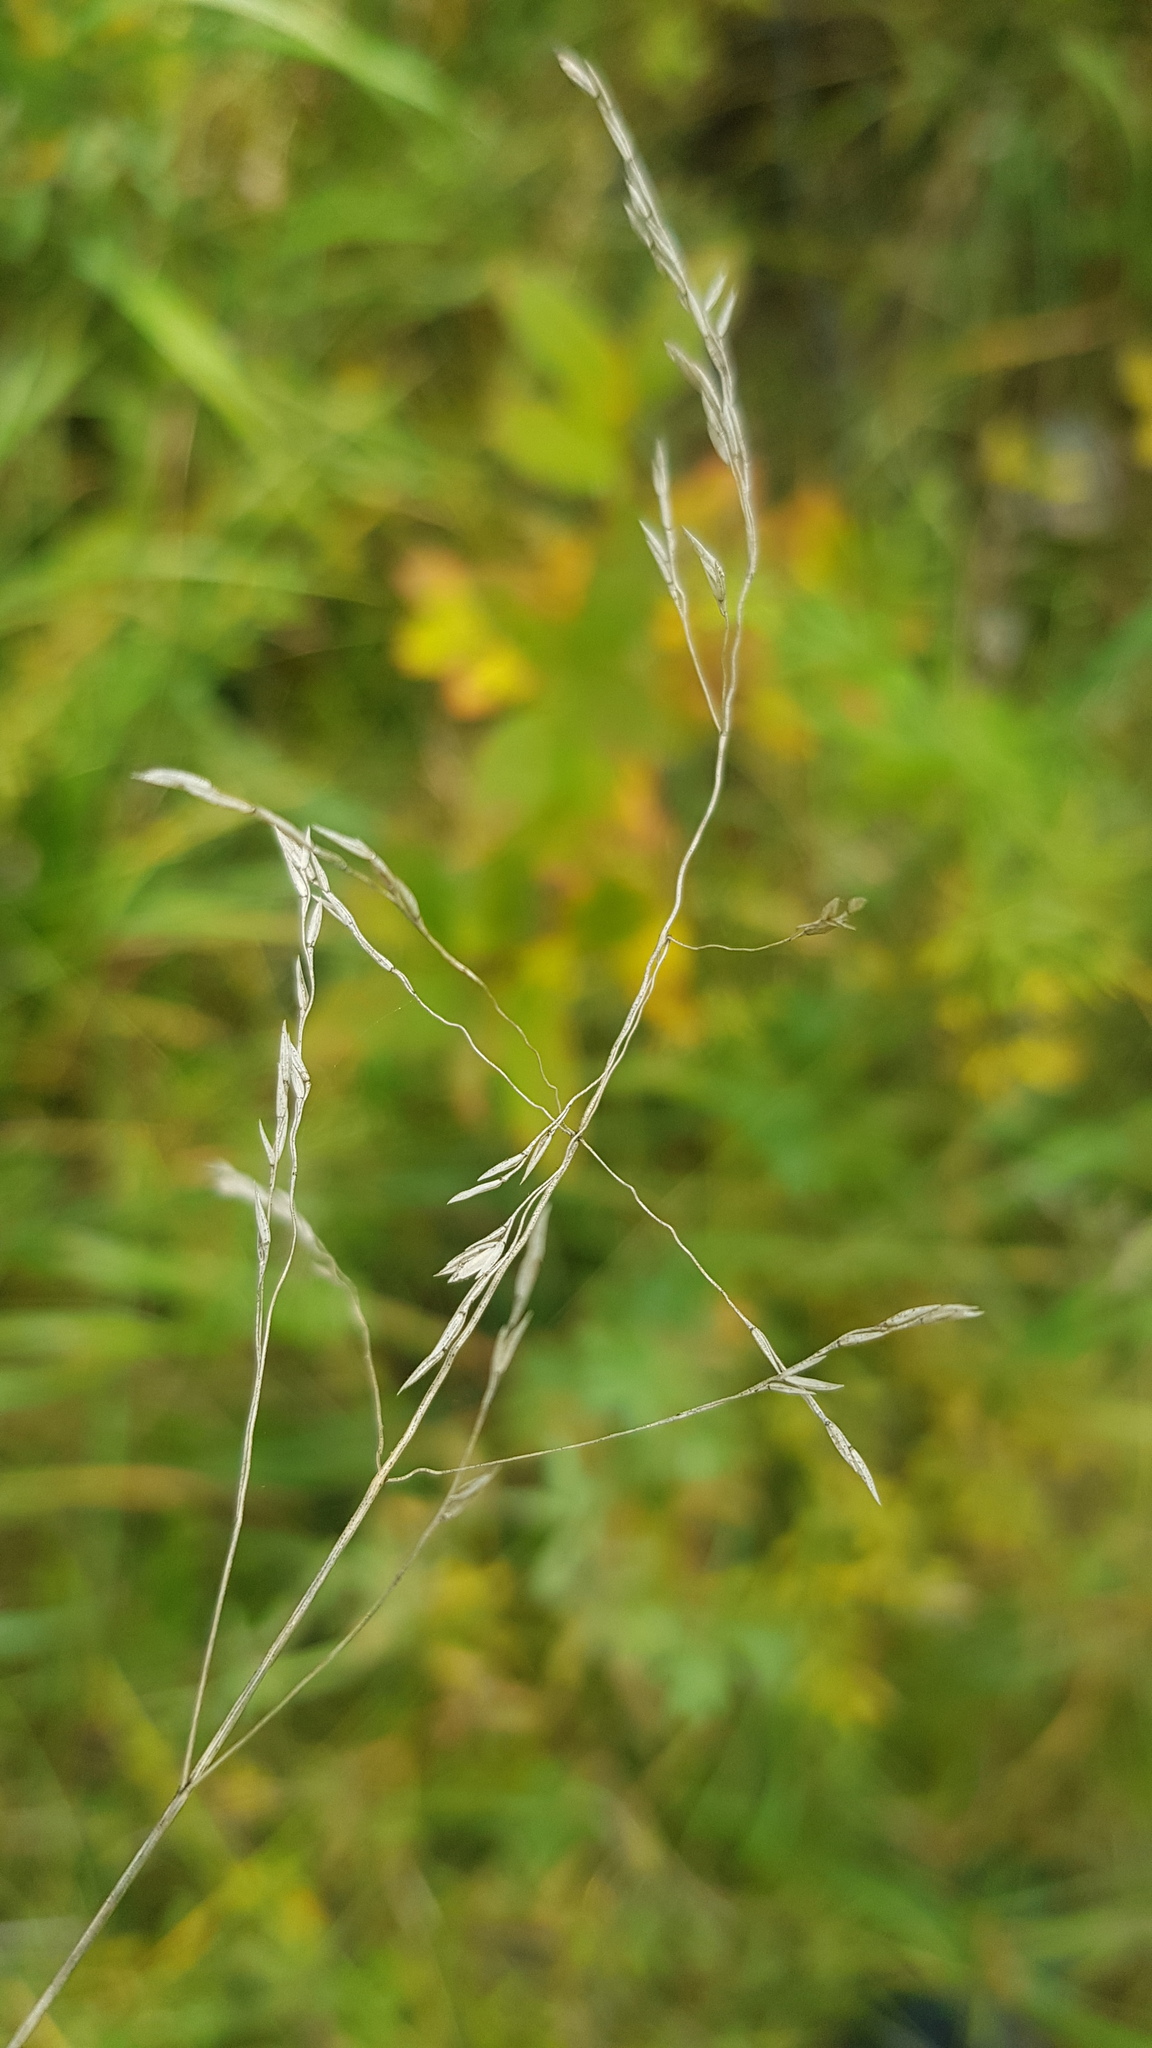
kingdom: Plantae
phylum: Tracheophyta
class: Liliopsida
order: Poales
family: Poaceae
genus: Poa
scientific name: Poa pratensis
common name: Kentucky bluegrass
